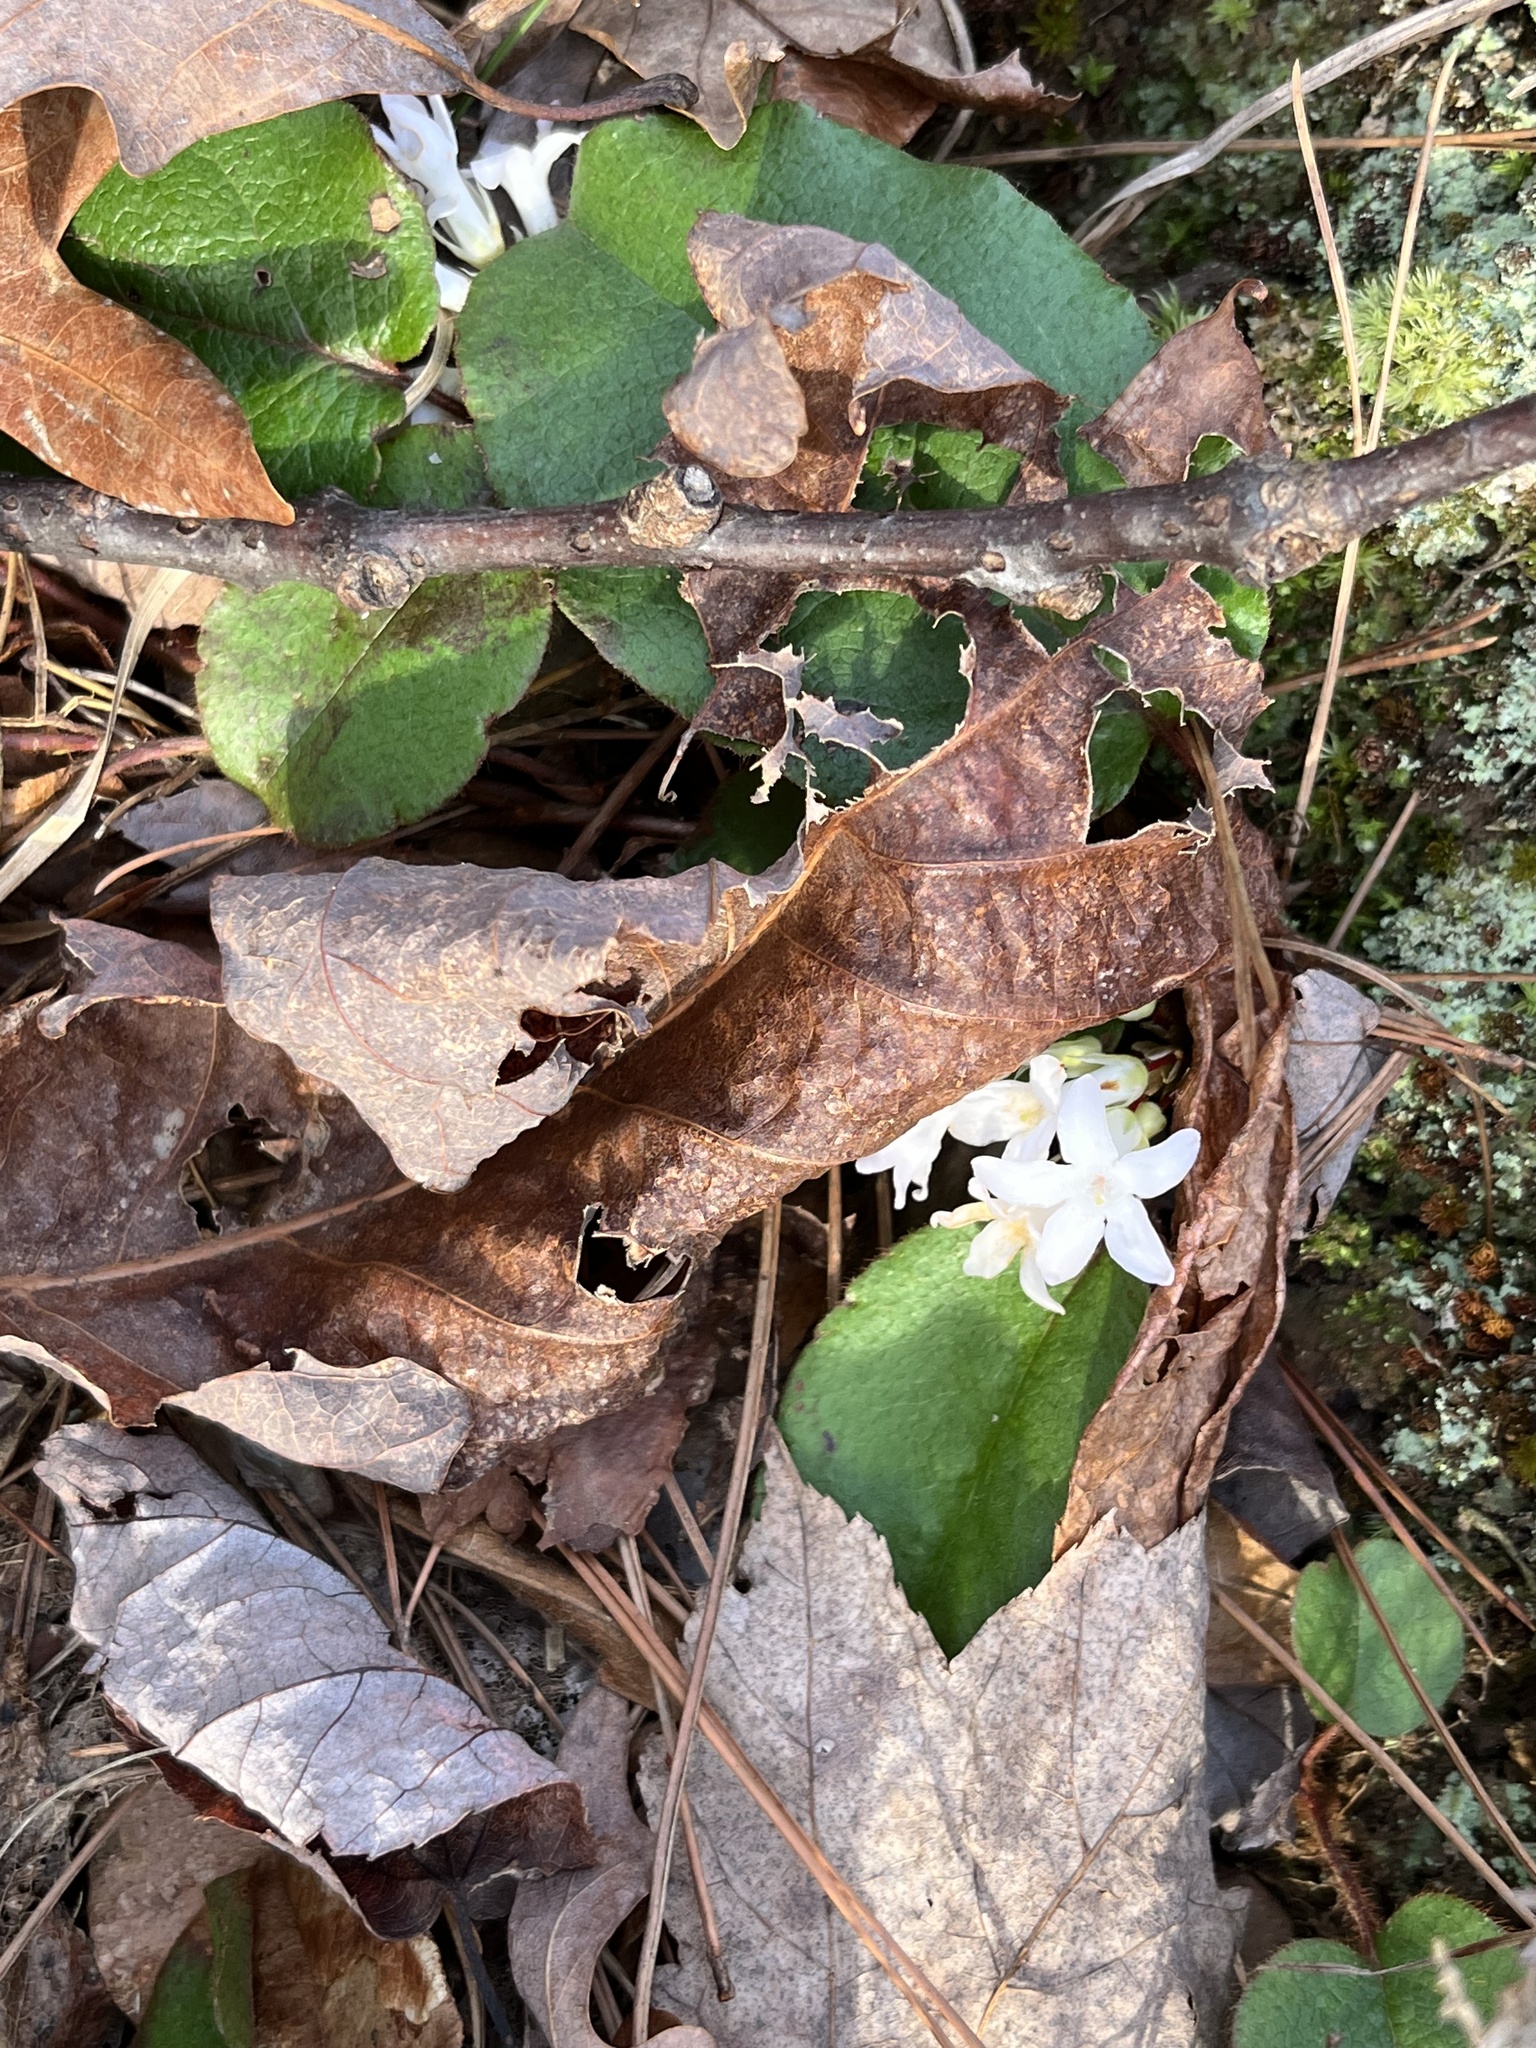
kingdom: Plantae
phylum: Tracheophyta
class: Magnoliopsida
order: Ericales
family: Ericaceae
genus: Epigaea
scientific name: Epigaea repens
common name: Gravelroot
